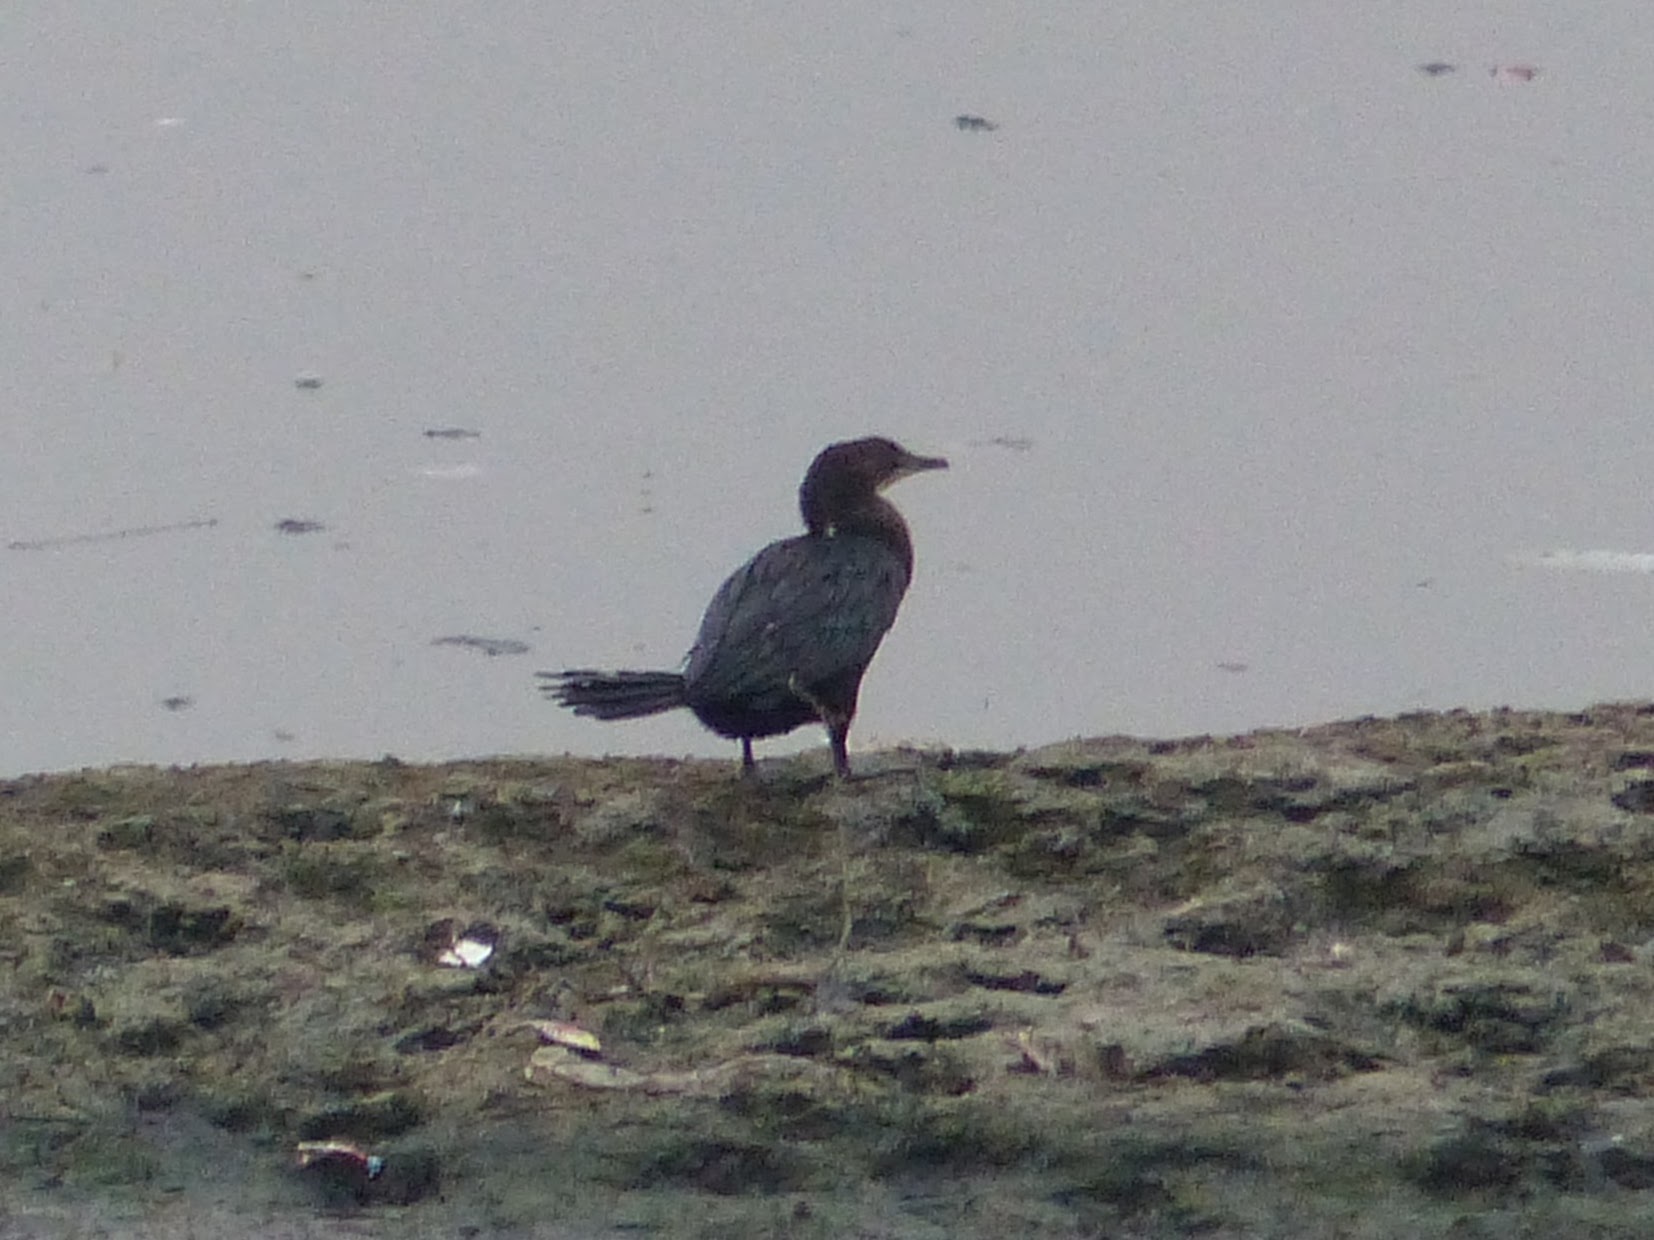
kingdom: Animalia
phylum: Chordata
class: Aves
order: Suliformes
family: Phalacrocoracidae
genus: Microcarbo
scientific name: Microcarbo niger
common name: Little cormorant
